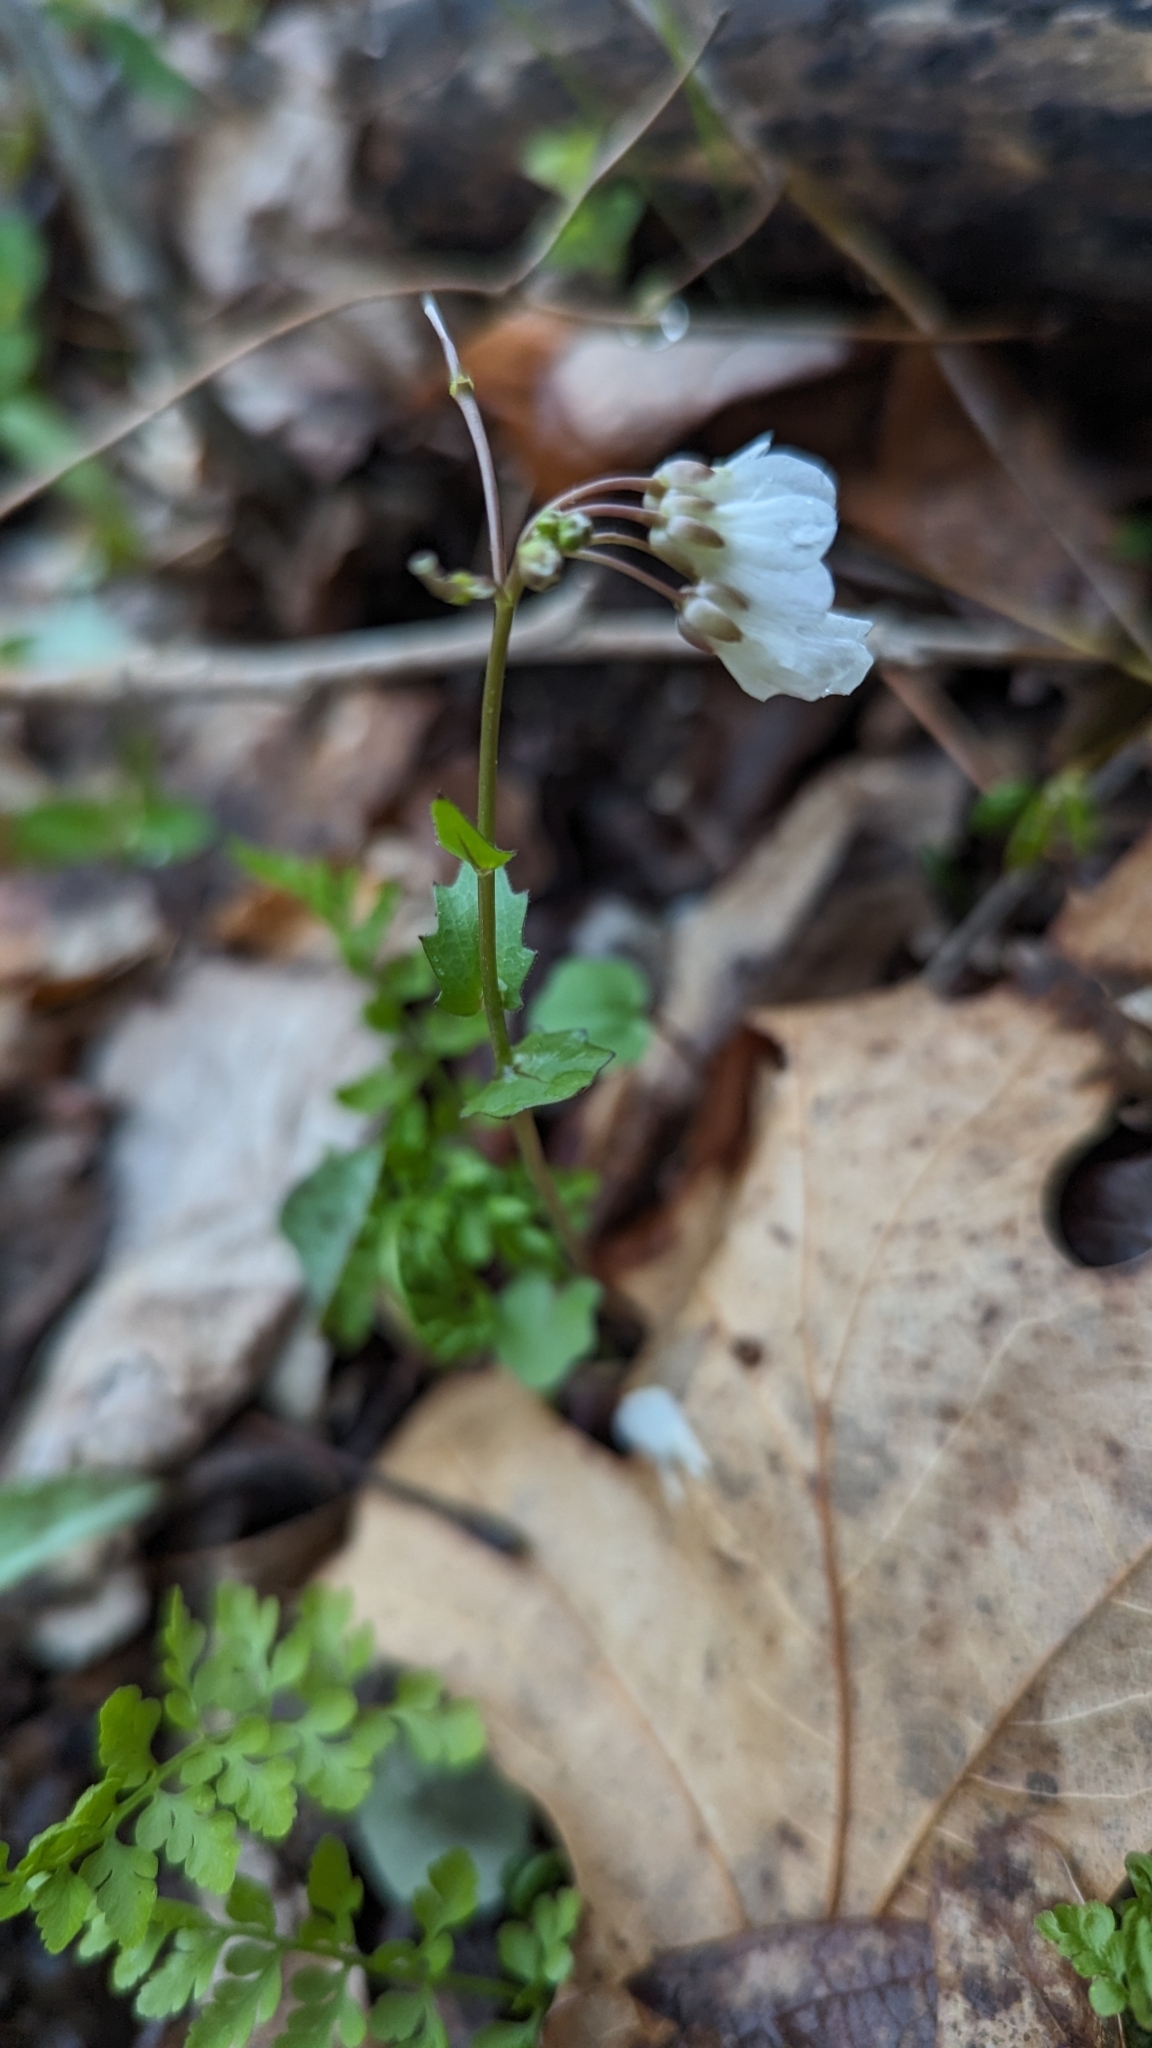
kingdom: Plantae
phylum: Tracheophyta
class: Magnoliopsida
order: Brassicales
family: Brassicaceae
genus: Cardamine
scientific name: Cardamine douglassii
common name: Purple cress
